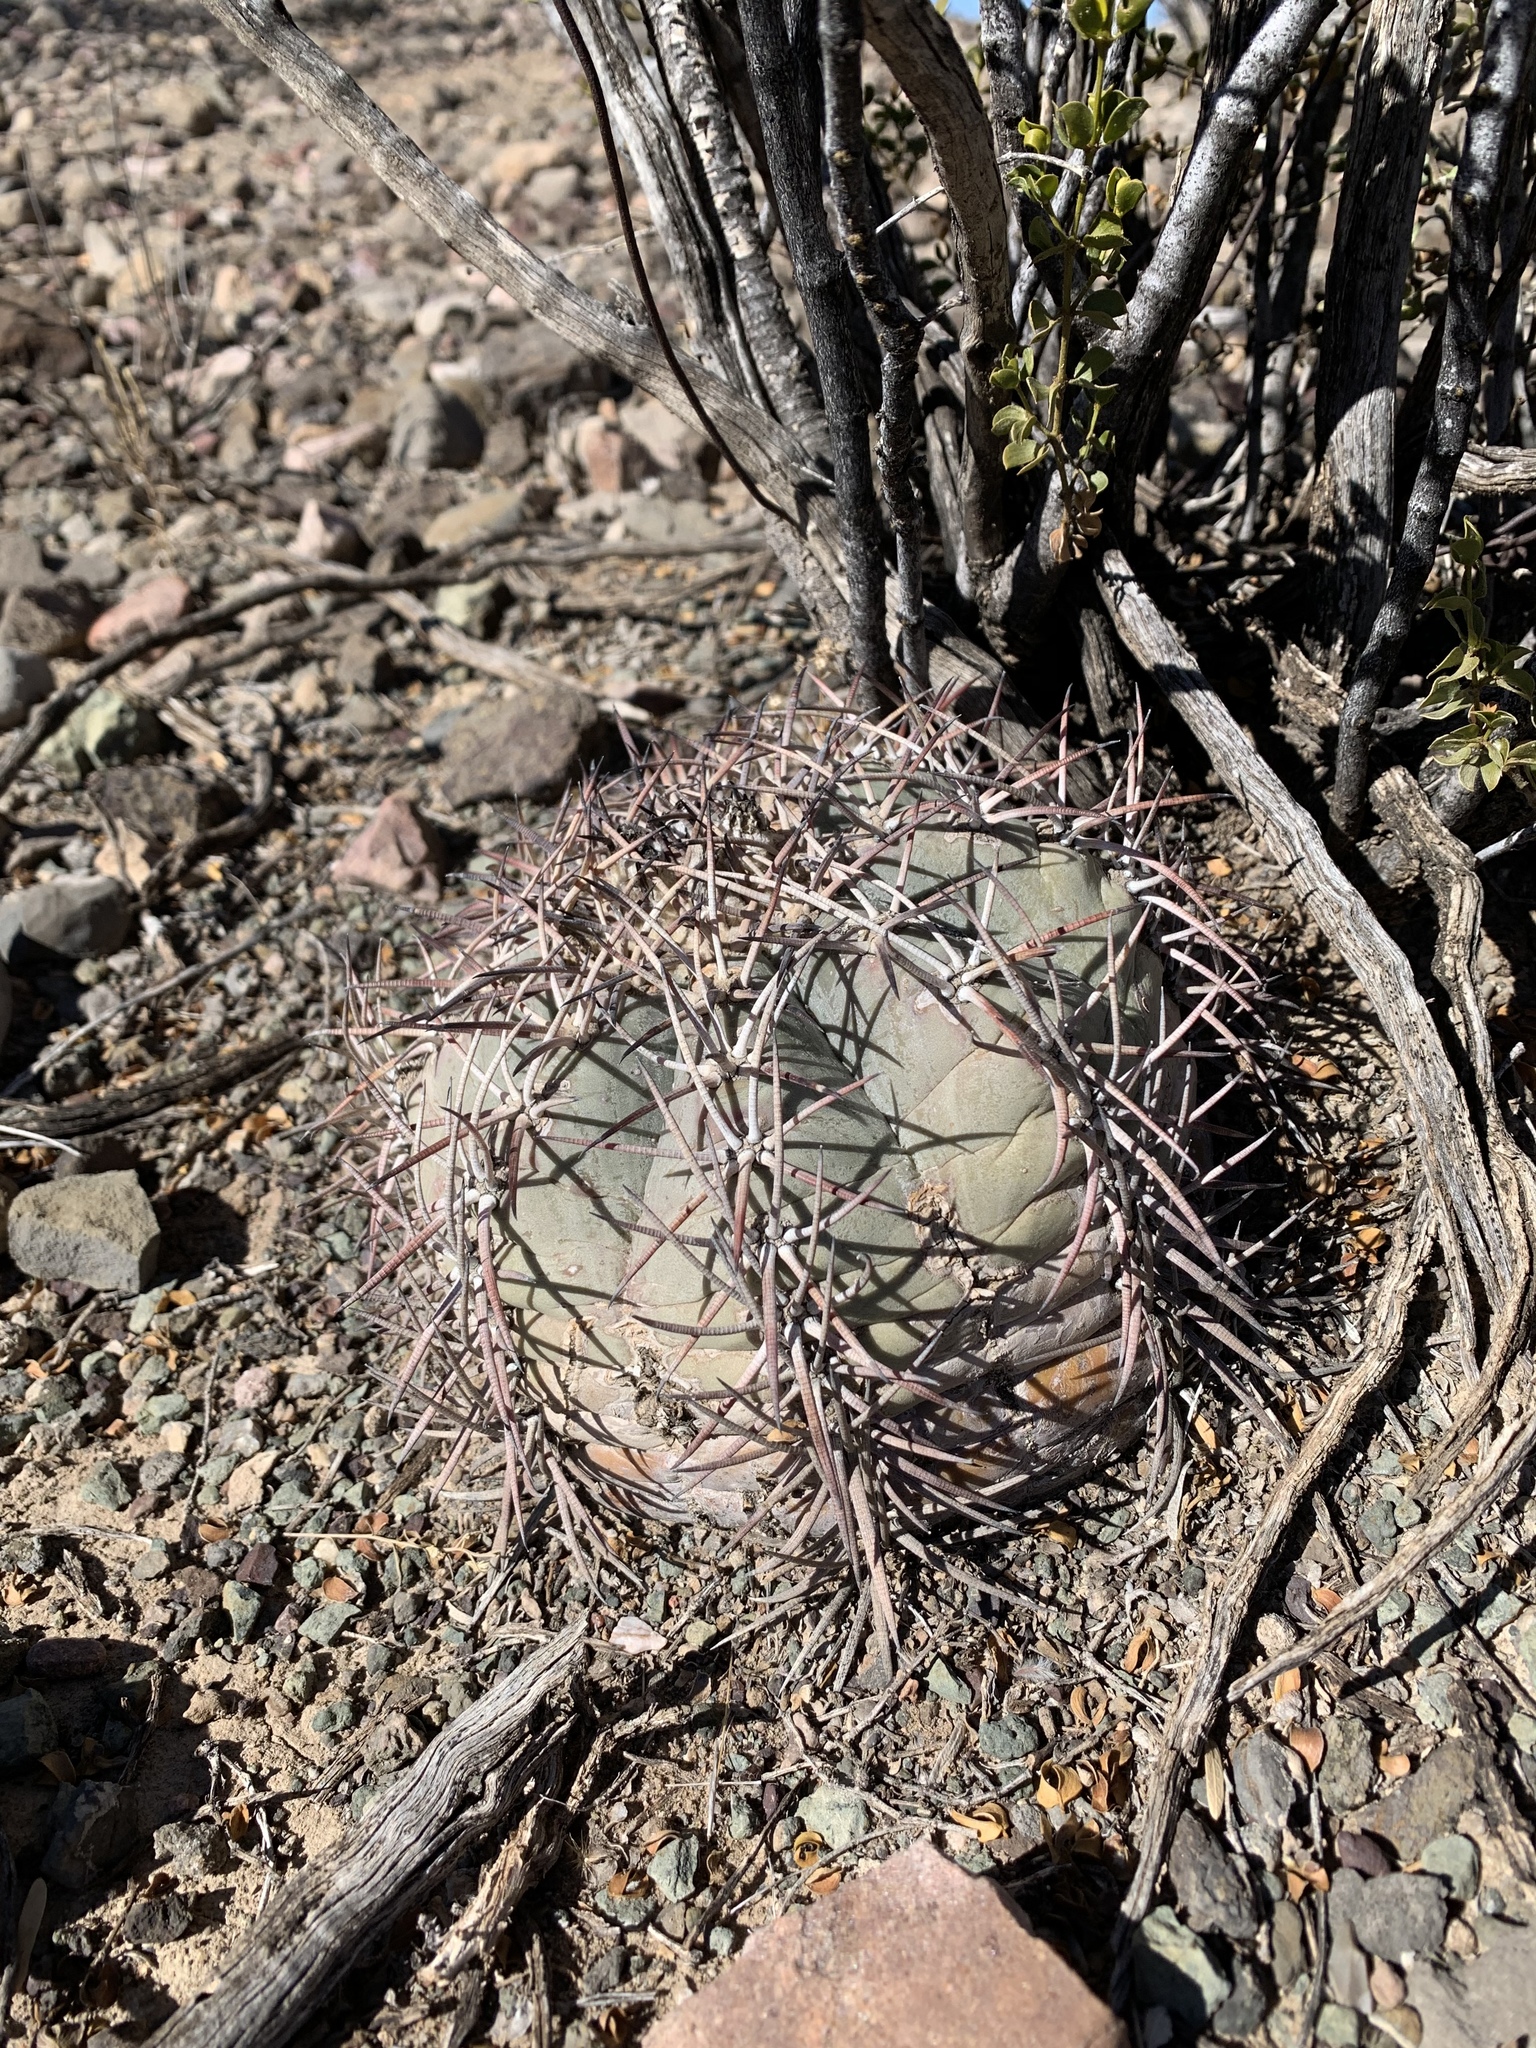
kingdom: Plantae
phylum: Tracheophyta
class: Magnoliopsida
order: Caryophyllales
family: Cactaceae
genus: Echinocactus
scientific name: Echinocactus horizonthalonius
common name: Devilshead
